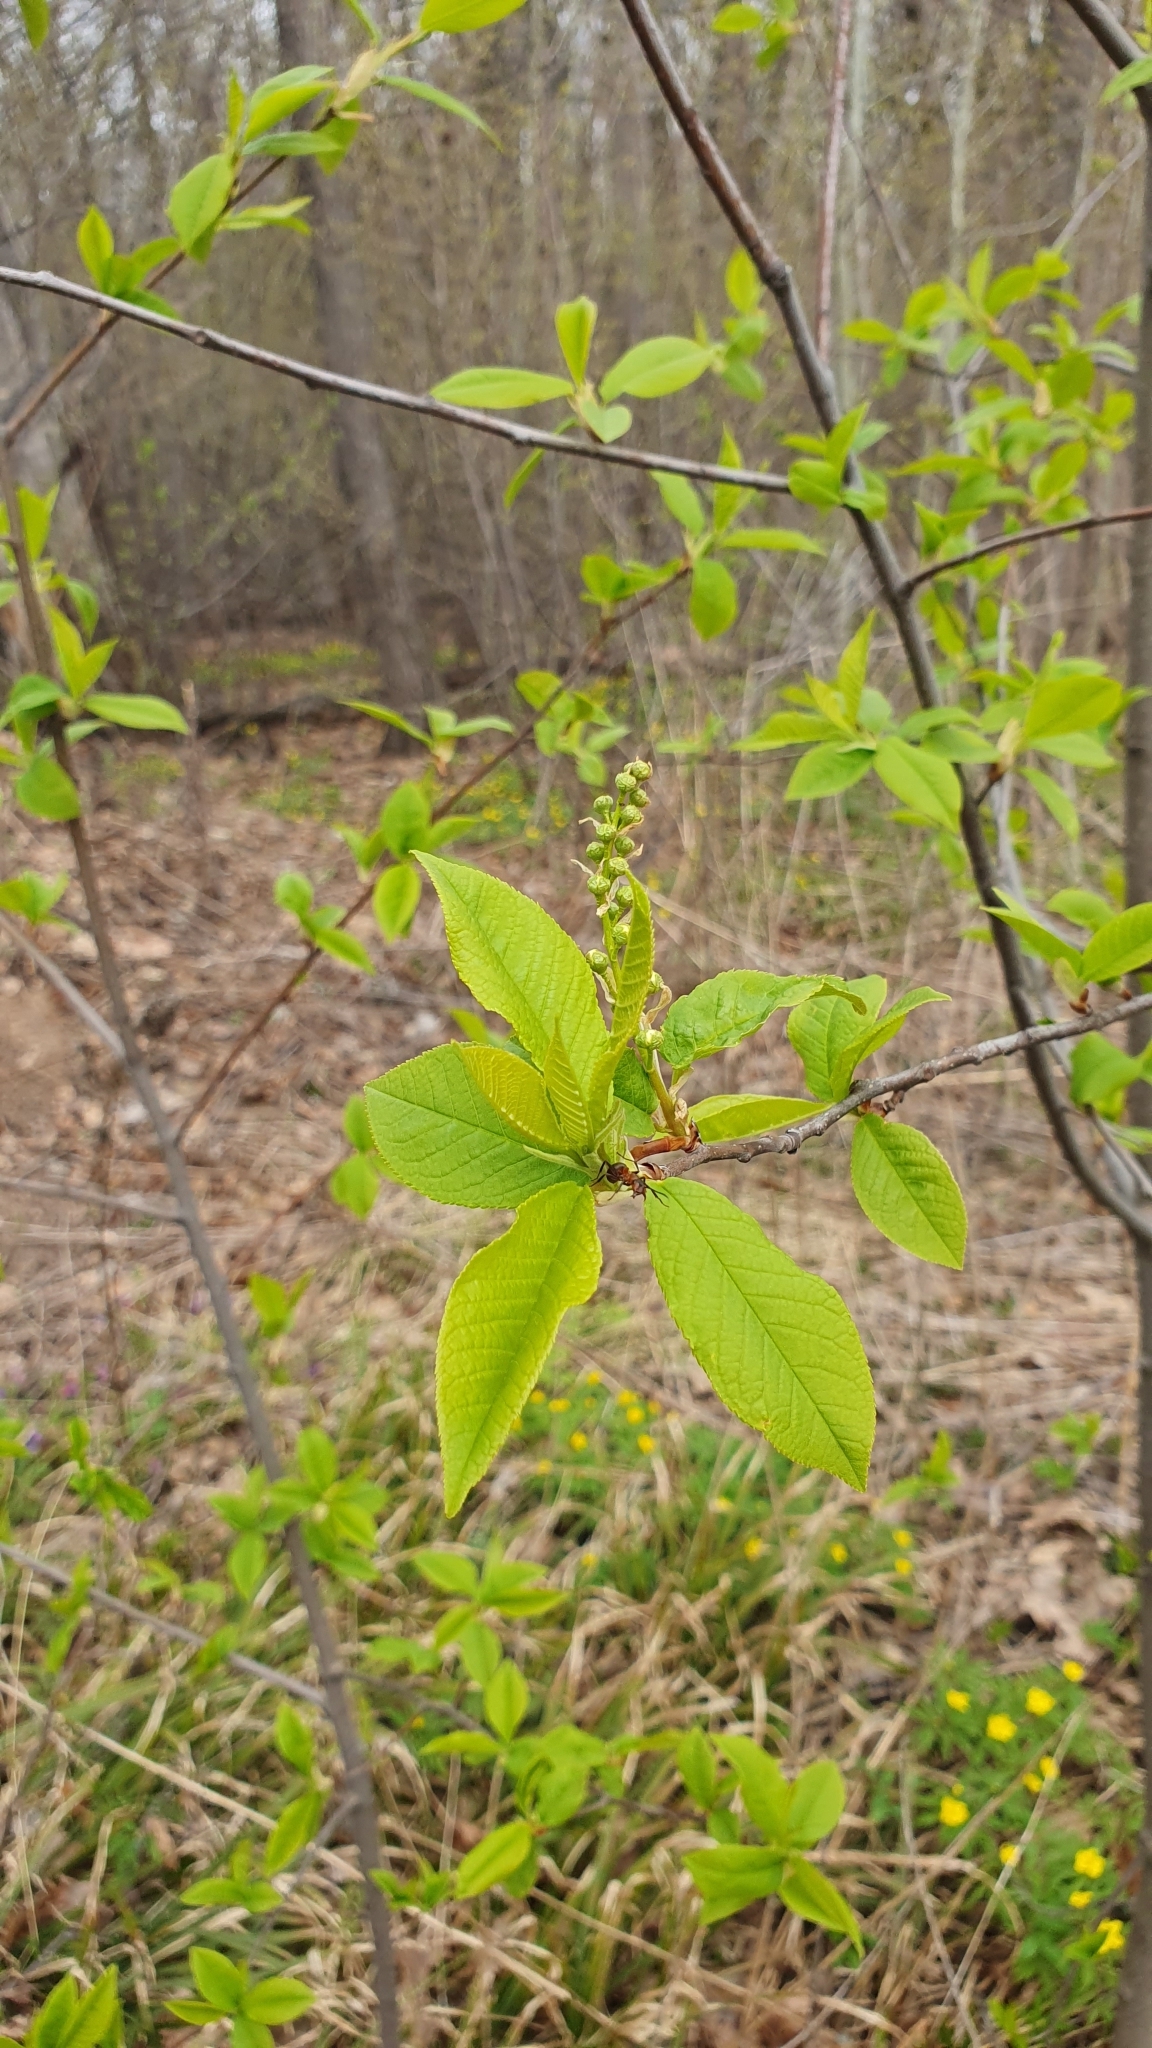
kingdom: Plantae
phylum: Tracheophyta
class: Magnoliopsida
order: Rosales
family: Rosaceae
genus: Prunus
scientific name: Prunus padus
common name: Bird cherry
